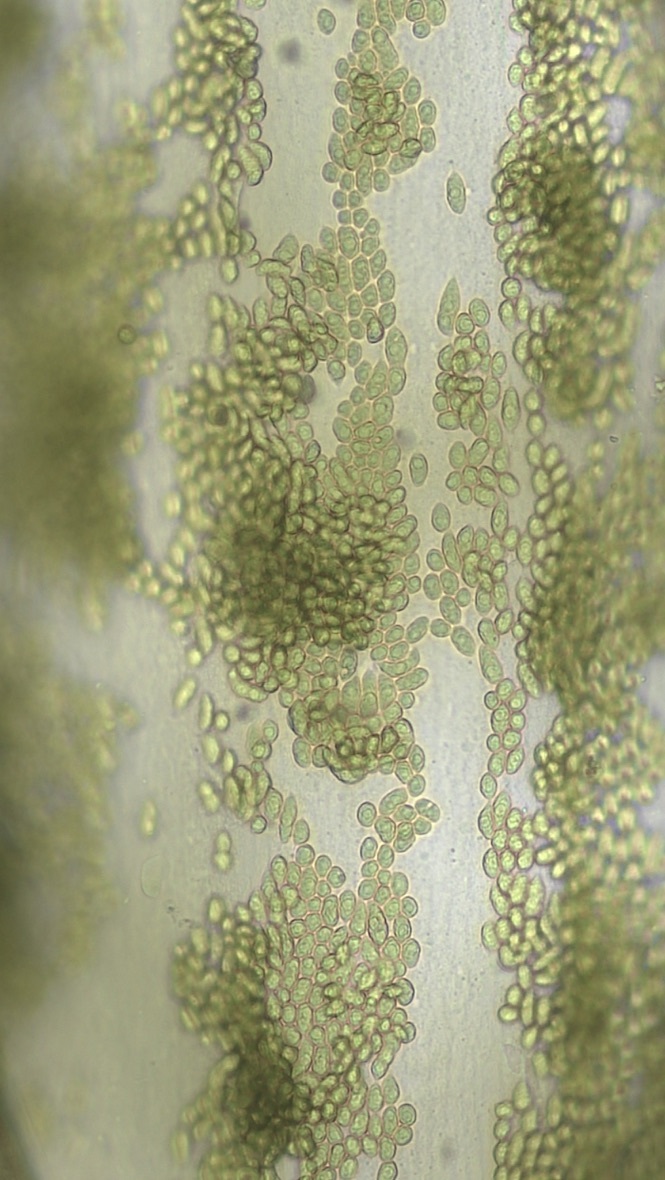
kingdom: Plantae
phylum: Chlorophyta
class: Ulvophyceae
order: Bryopsidales
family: Bryopsidaceae
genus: Bryopsis
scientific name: Bryopsis hypnoides
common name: Thicketweed
